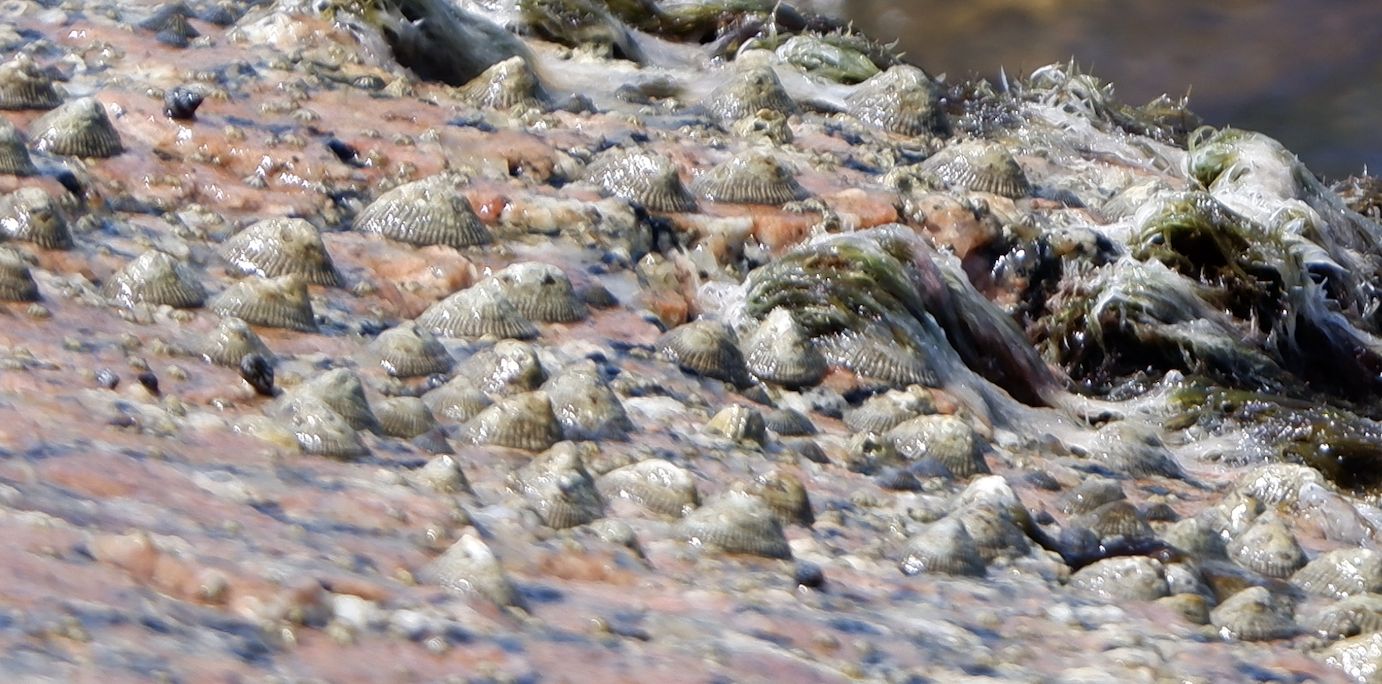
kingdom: Animalia
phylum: Mollusca
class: Gastropoda
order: Siphonariida
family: Siphonariidae
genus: Siphonaria
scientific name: Siphonaria naufragum
